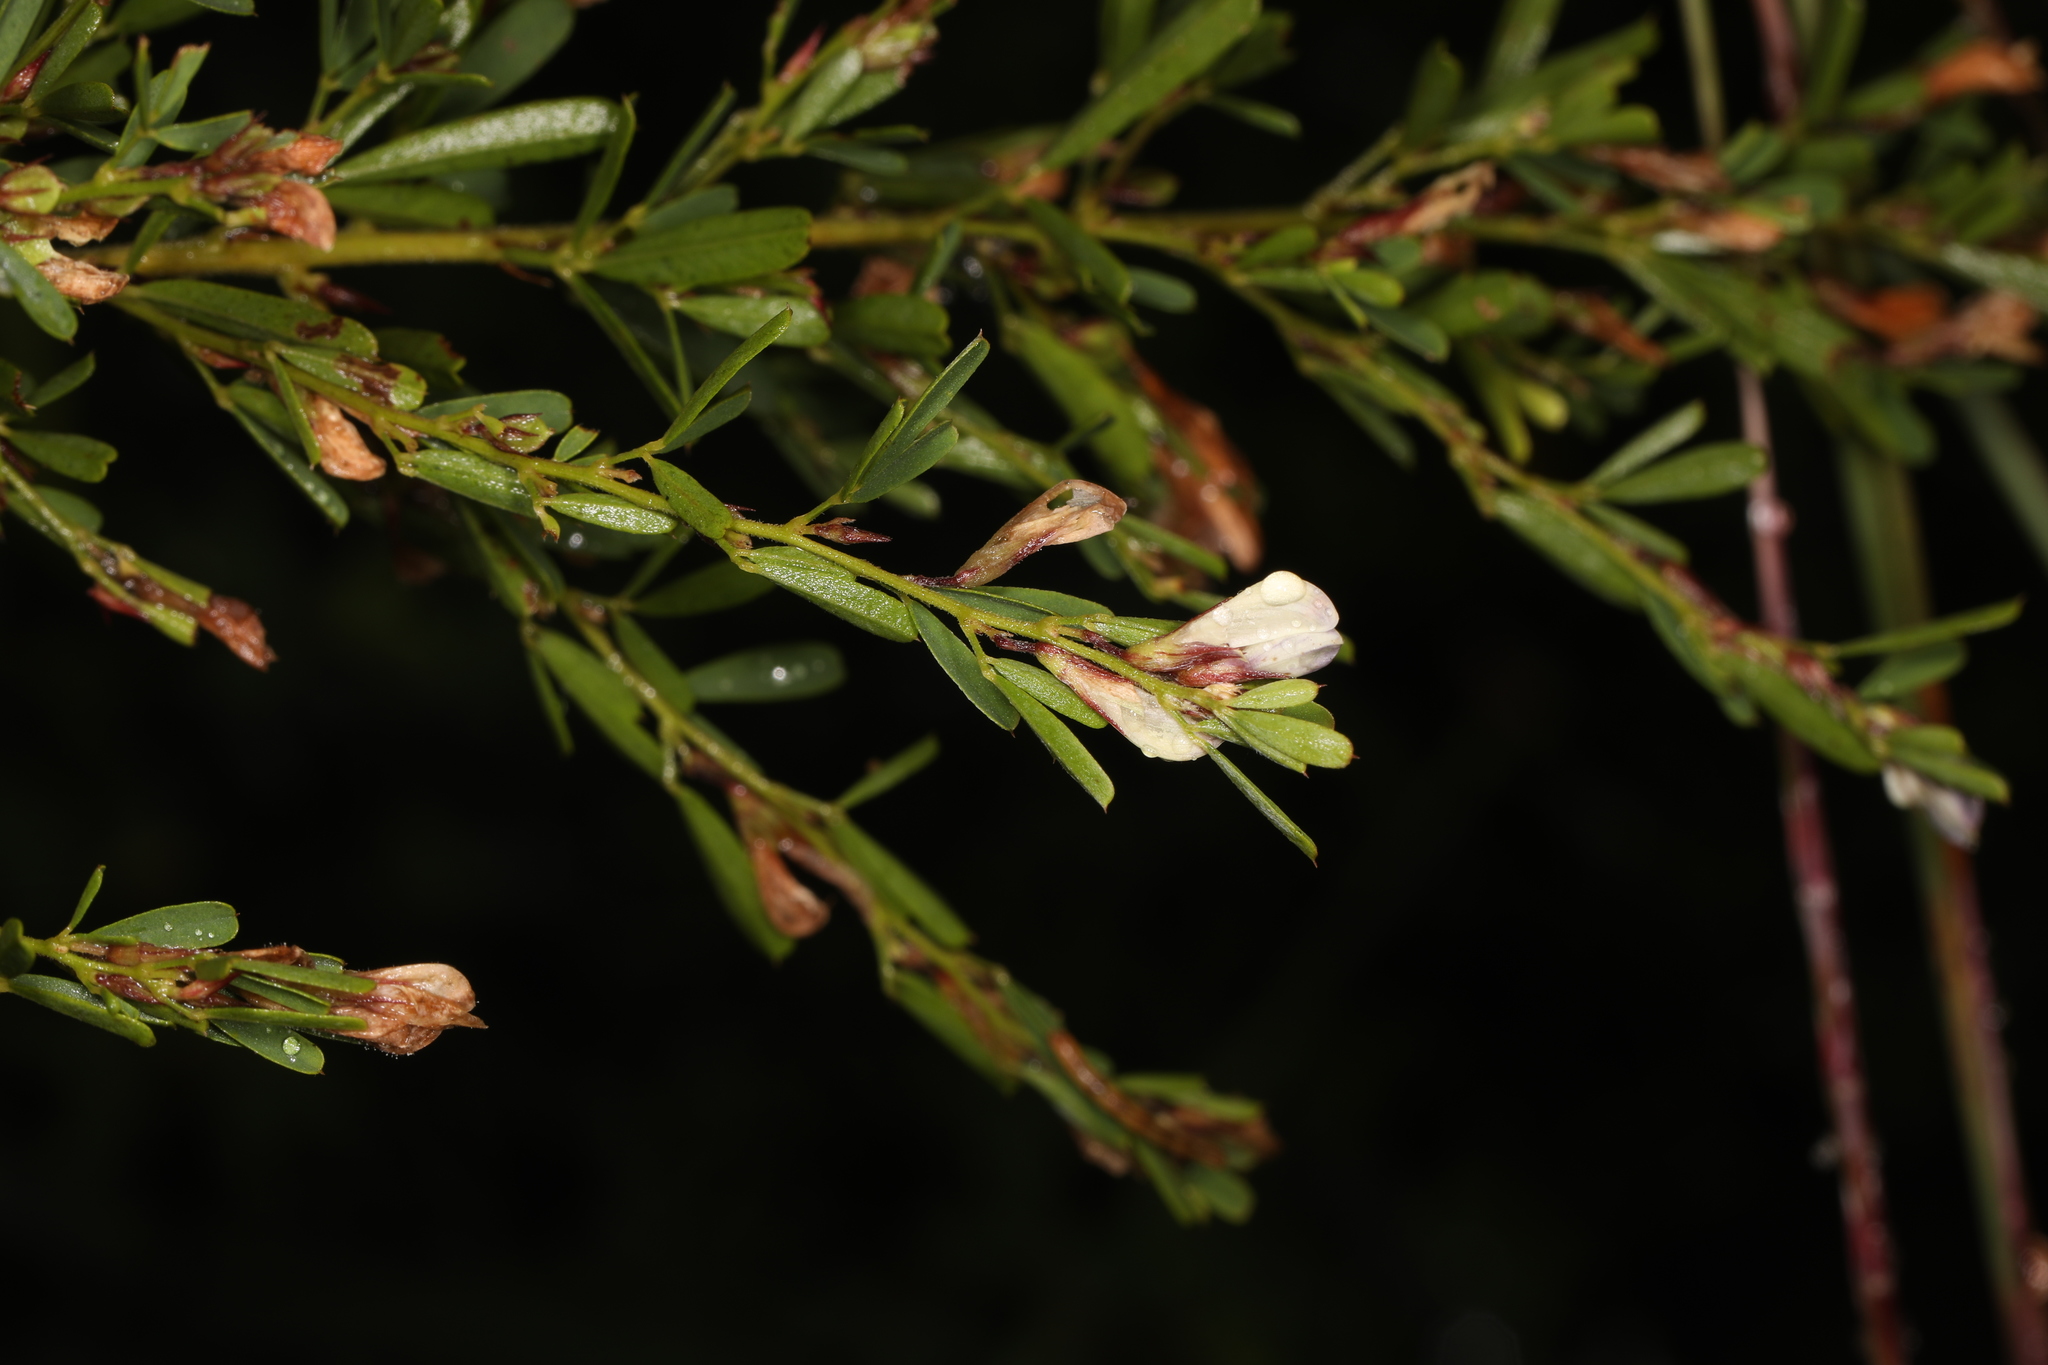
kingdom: Plantae
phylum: Tracheophyta
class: Magnoliopsida
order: Fabales
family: Fabaceae
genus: Lespedeza
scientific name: Lespedeza cuneata
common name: Chinese bush-clover
